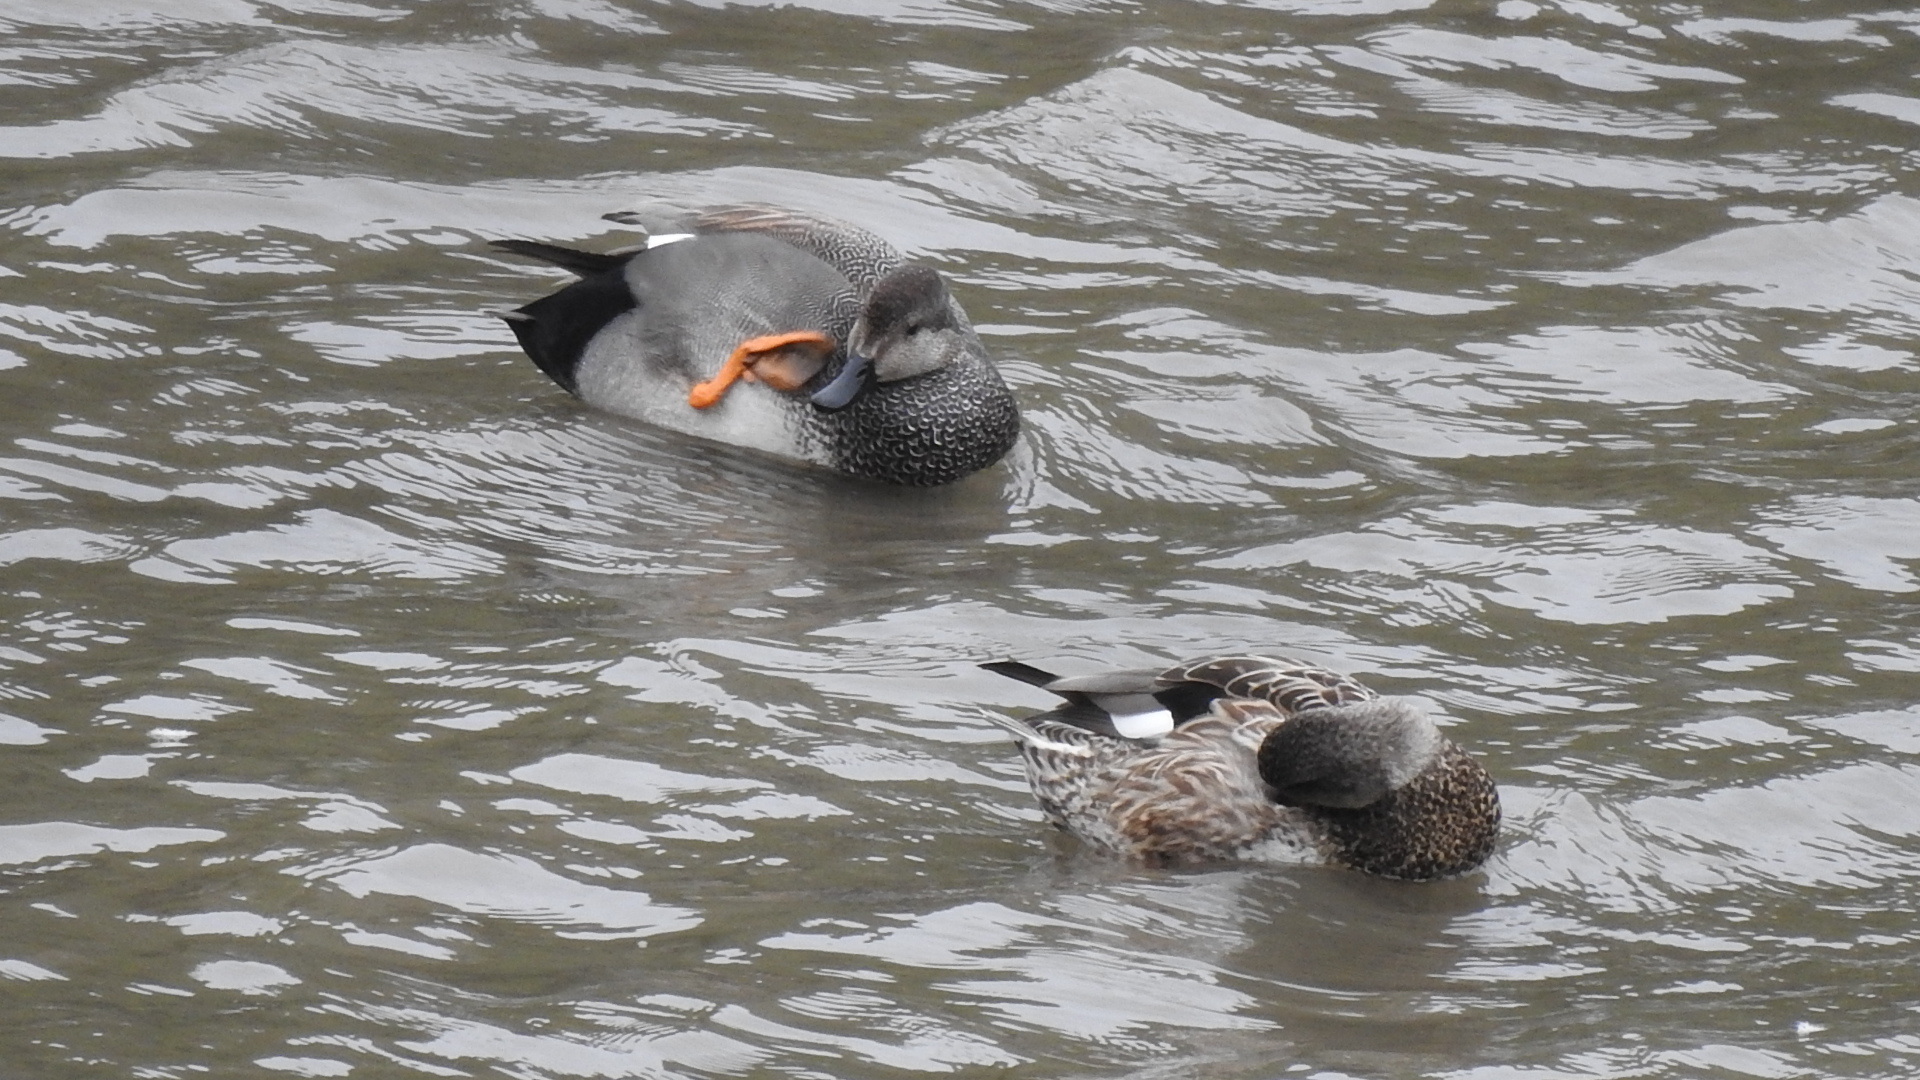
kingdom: Animalia
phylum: Chordata
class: Aves
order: Anseriformes
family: Anatidae
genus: Mareca
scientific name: Mareca strepera
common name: Gadwall
